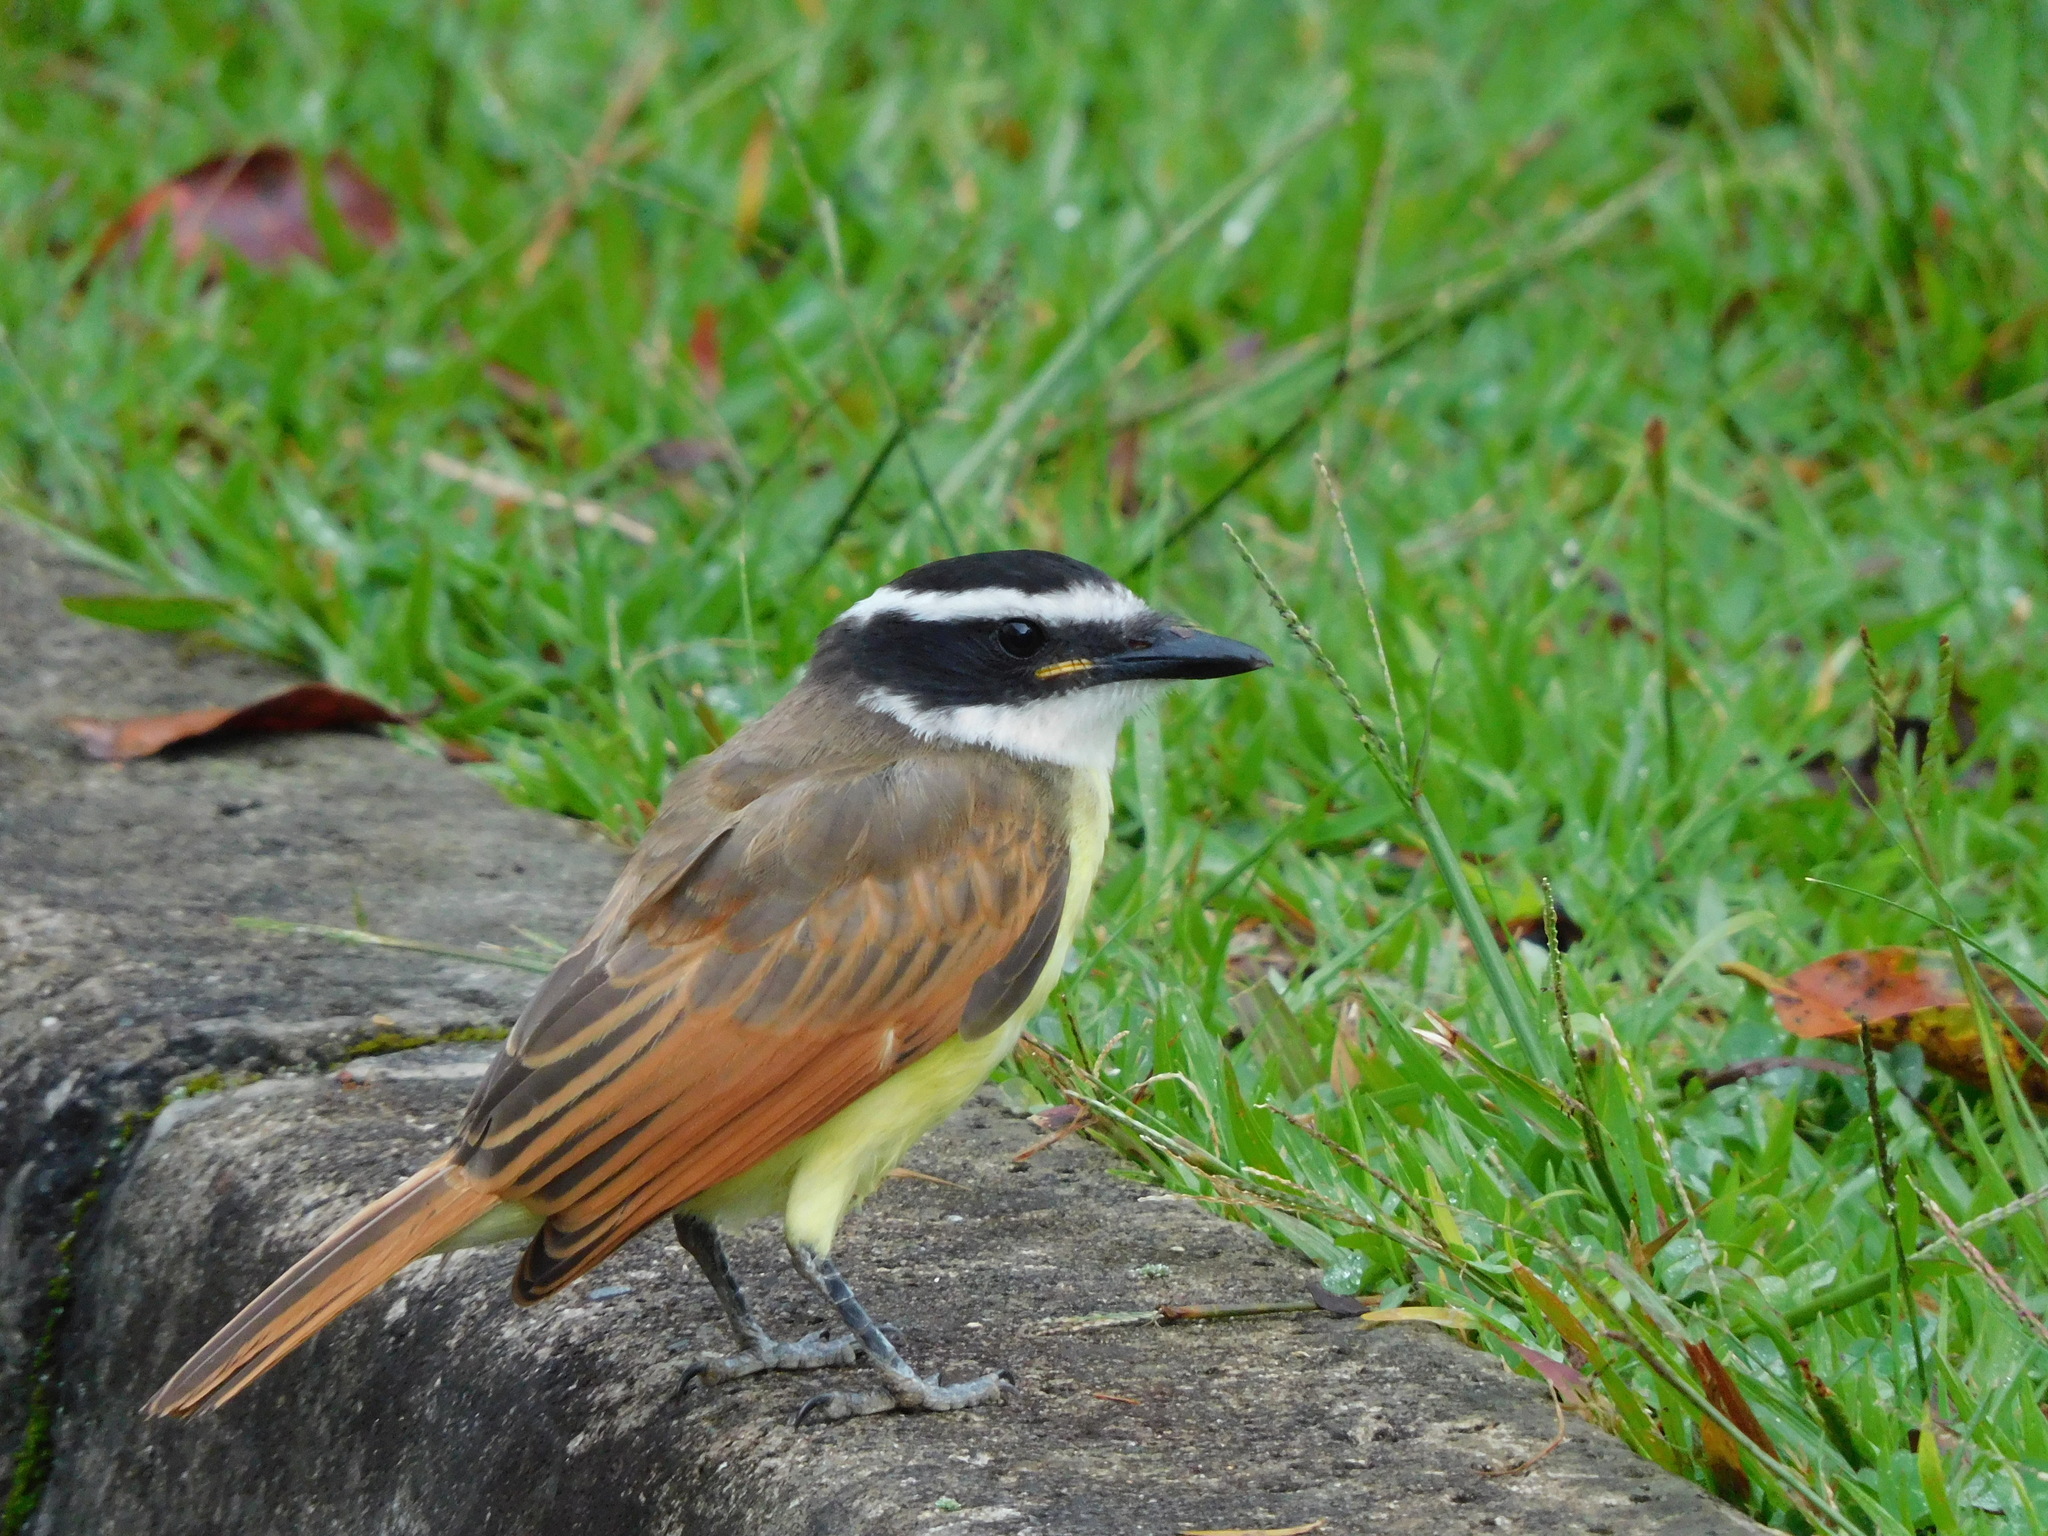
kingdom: Animalia
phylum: Chordata
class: Aves
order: Passeriformes
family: Tyrannidae
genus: Pitangus
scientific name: Pitangus sulphuratus
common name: Great kiskadee
